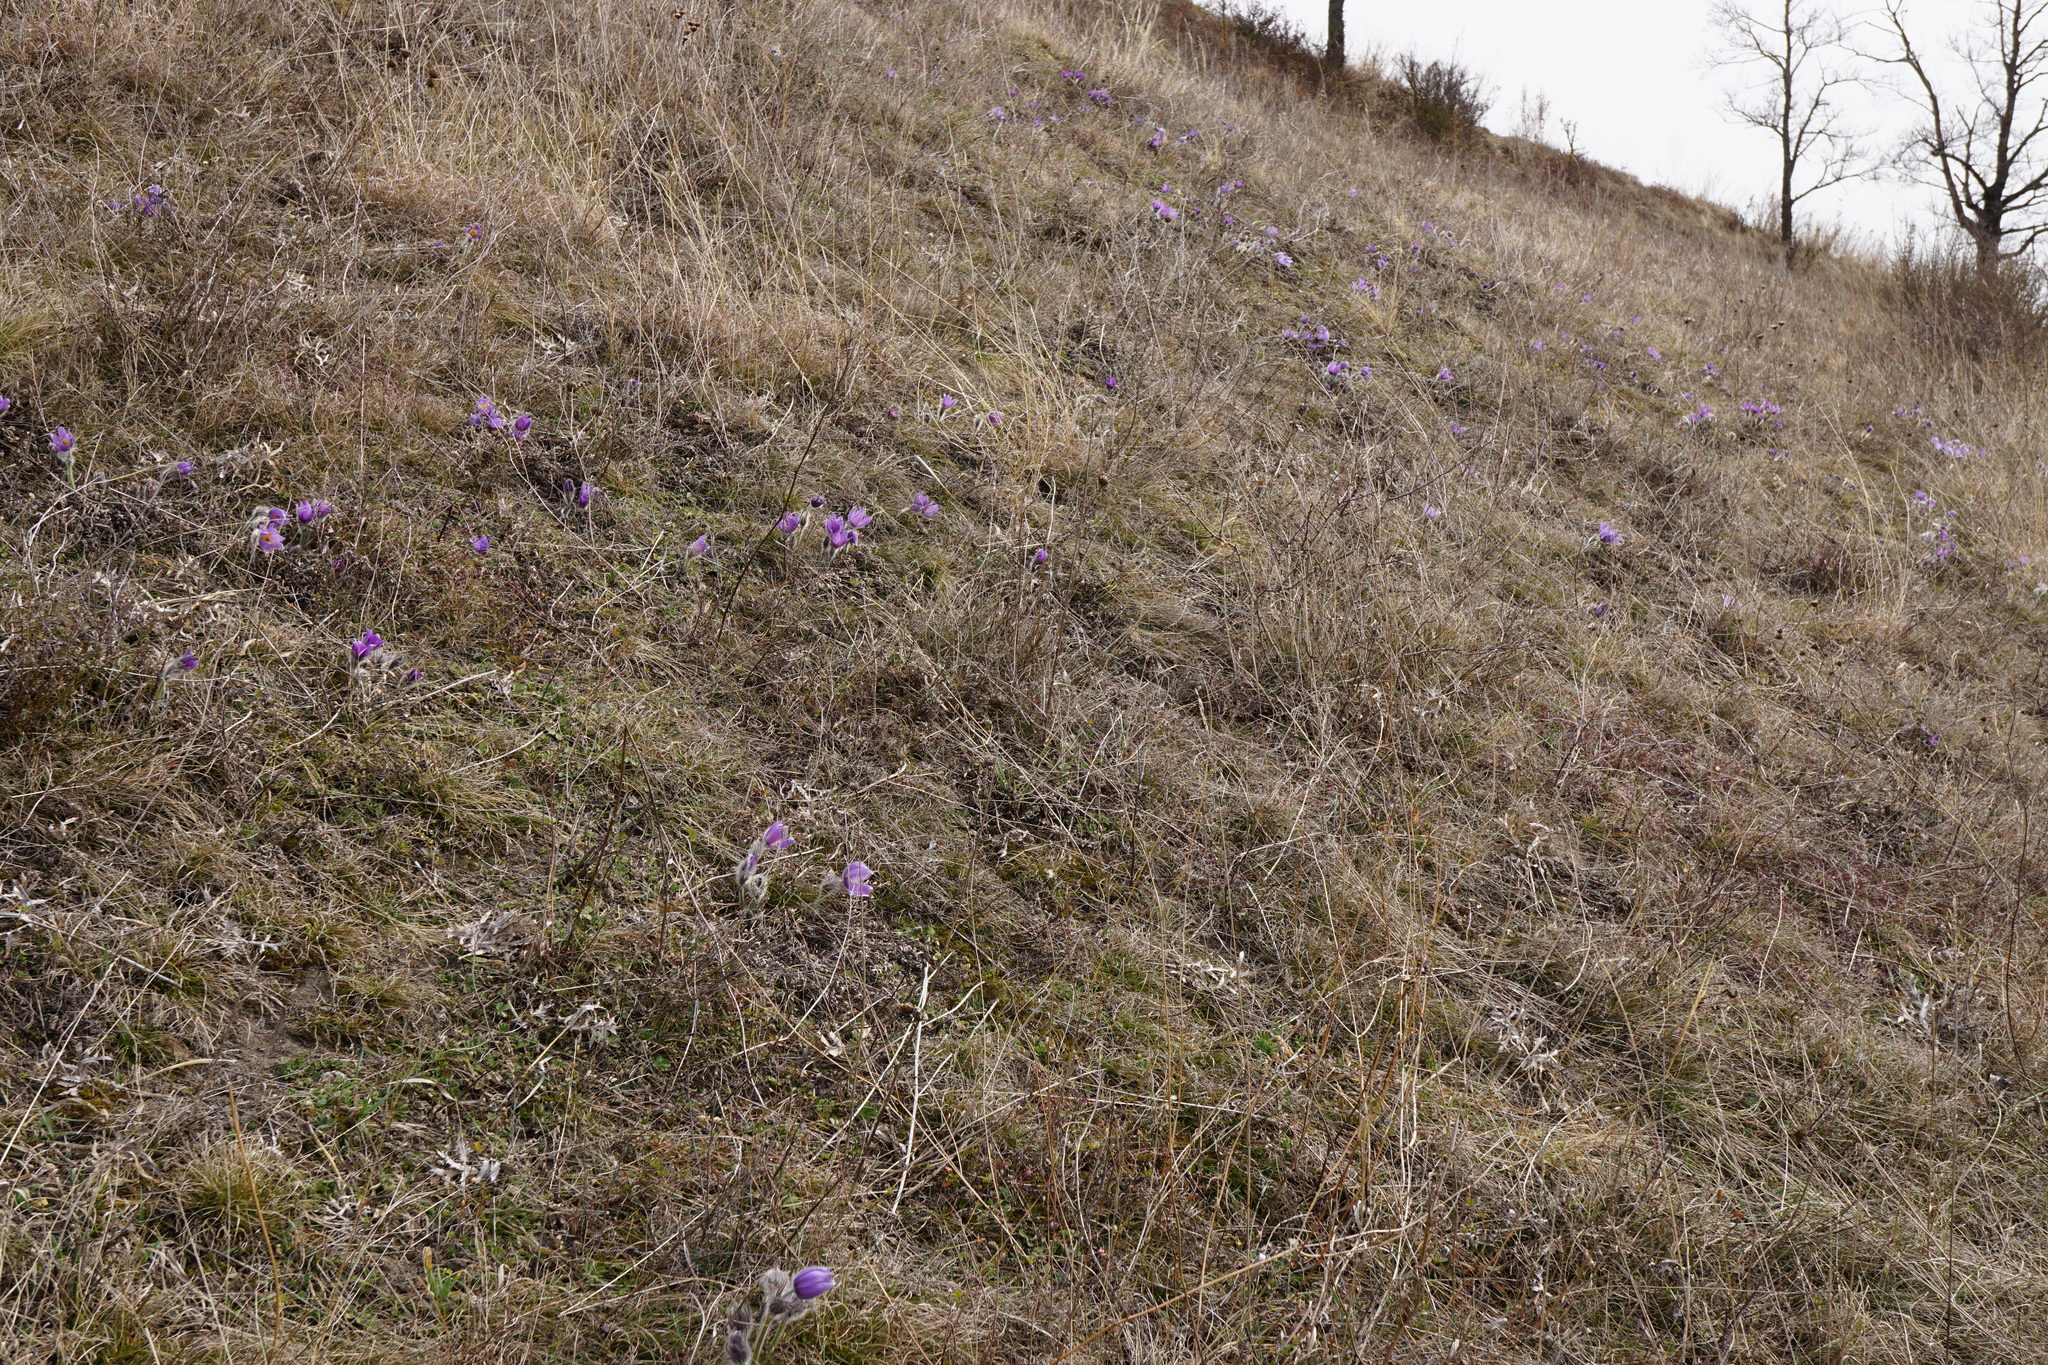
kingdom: Plantae
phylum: Tracheophyta
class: Magnoliopsida
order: Ranunculales
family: Ranunculaceae
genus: Pulsatilla
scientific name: Pulsatilla grandis
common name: Greater pasque flower
